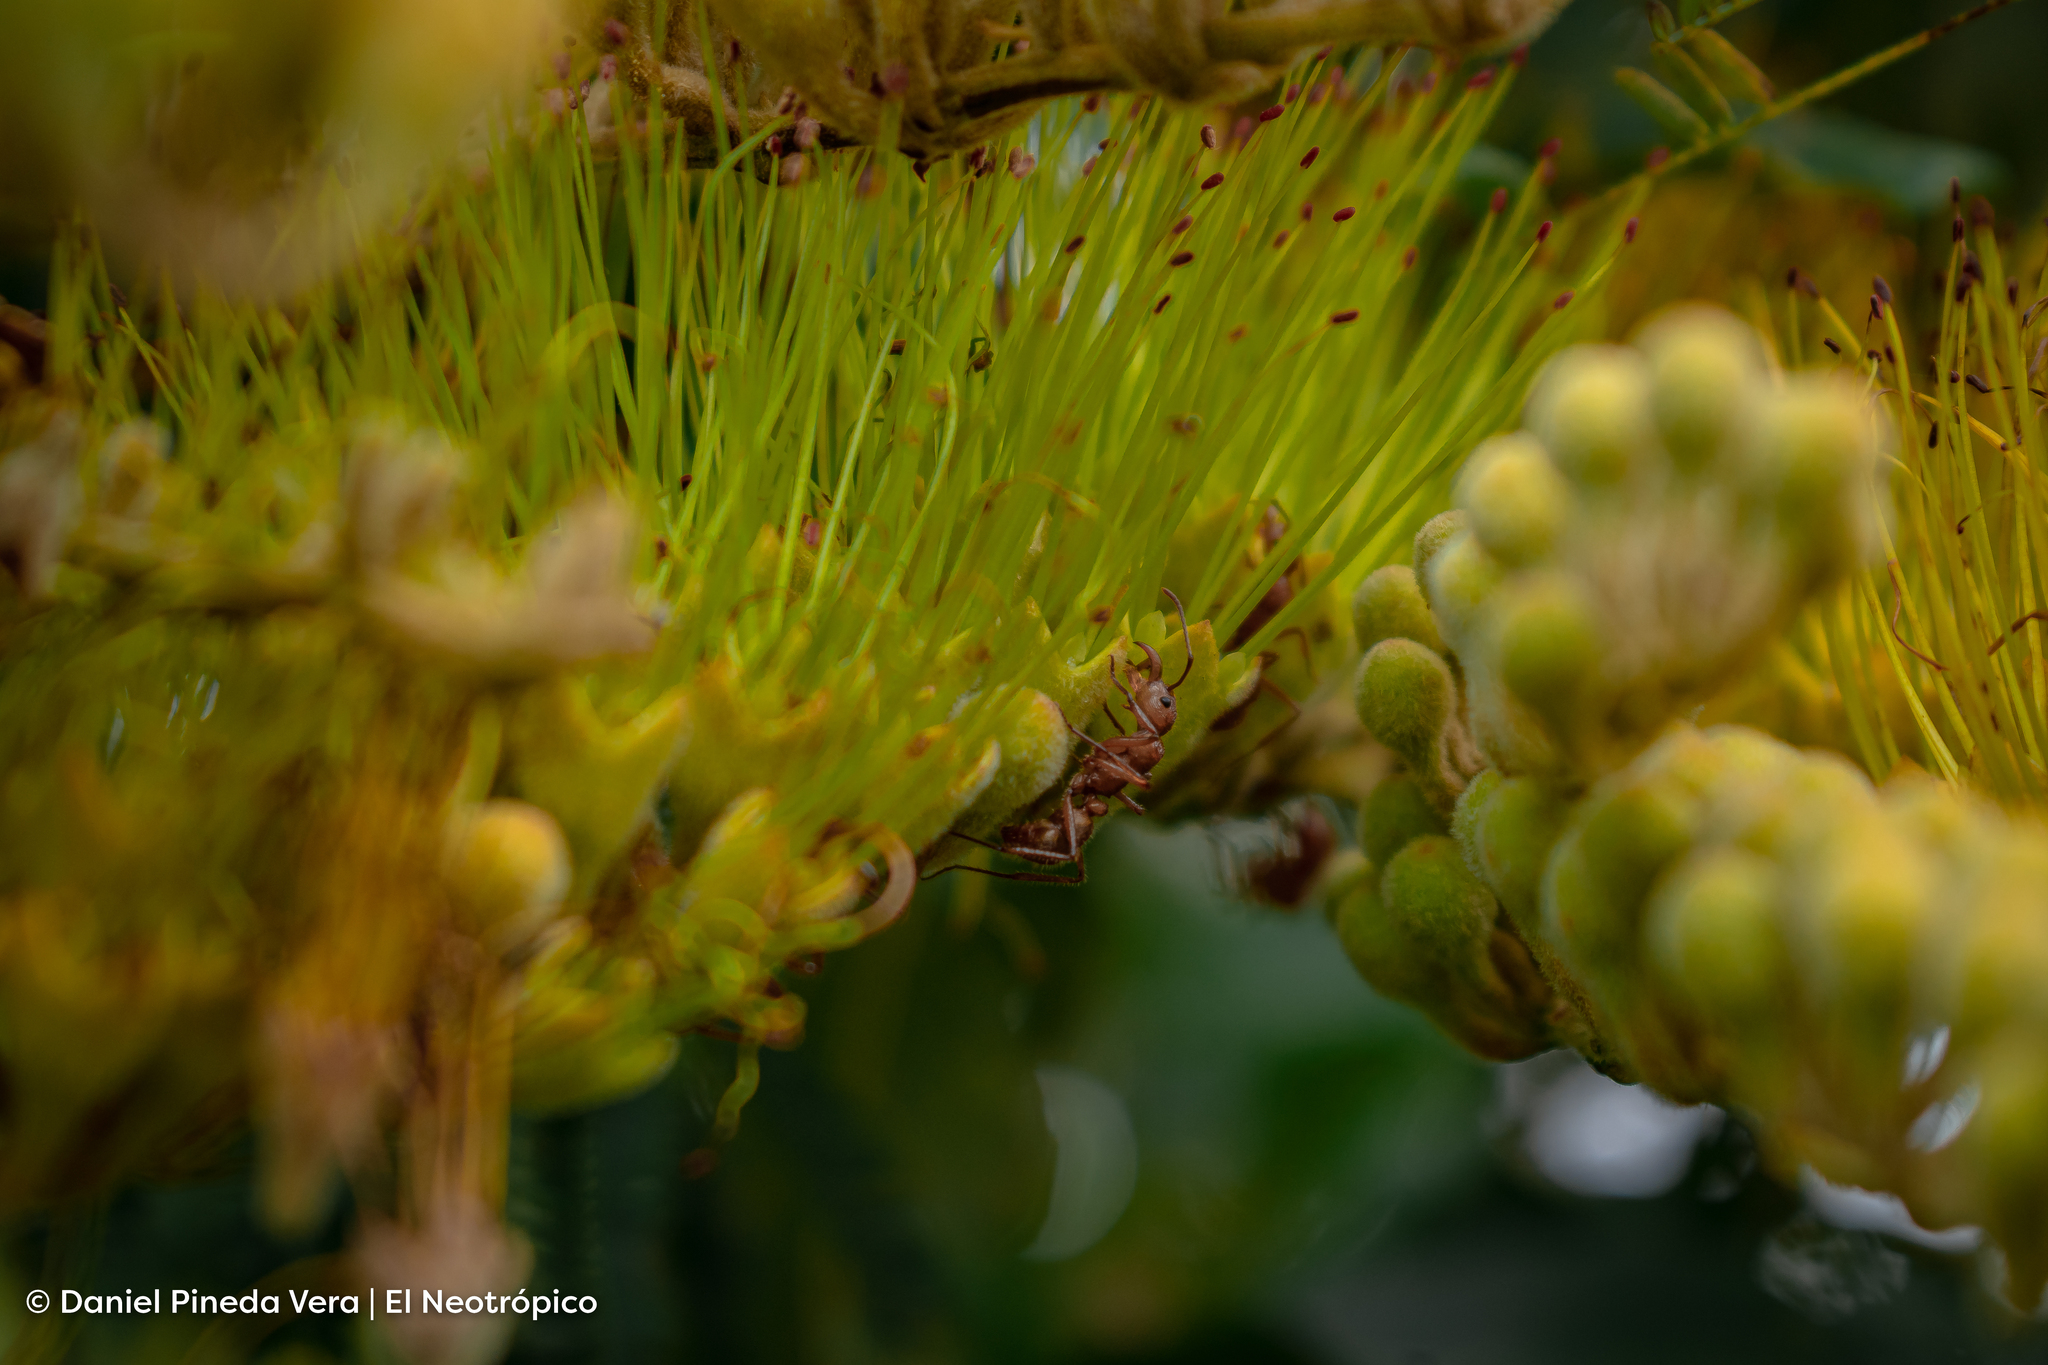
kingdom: Animalia
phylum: Arthropoda
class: Insecta
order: Hymenoptera
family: Formicidae
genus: Ectatomma
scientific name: Ectatomma tuberculatum
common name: Ant
